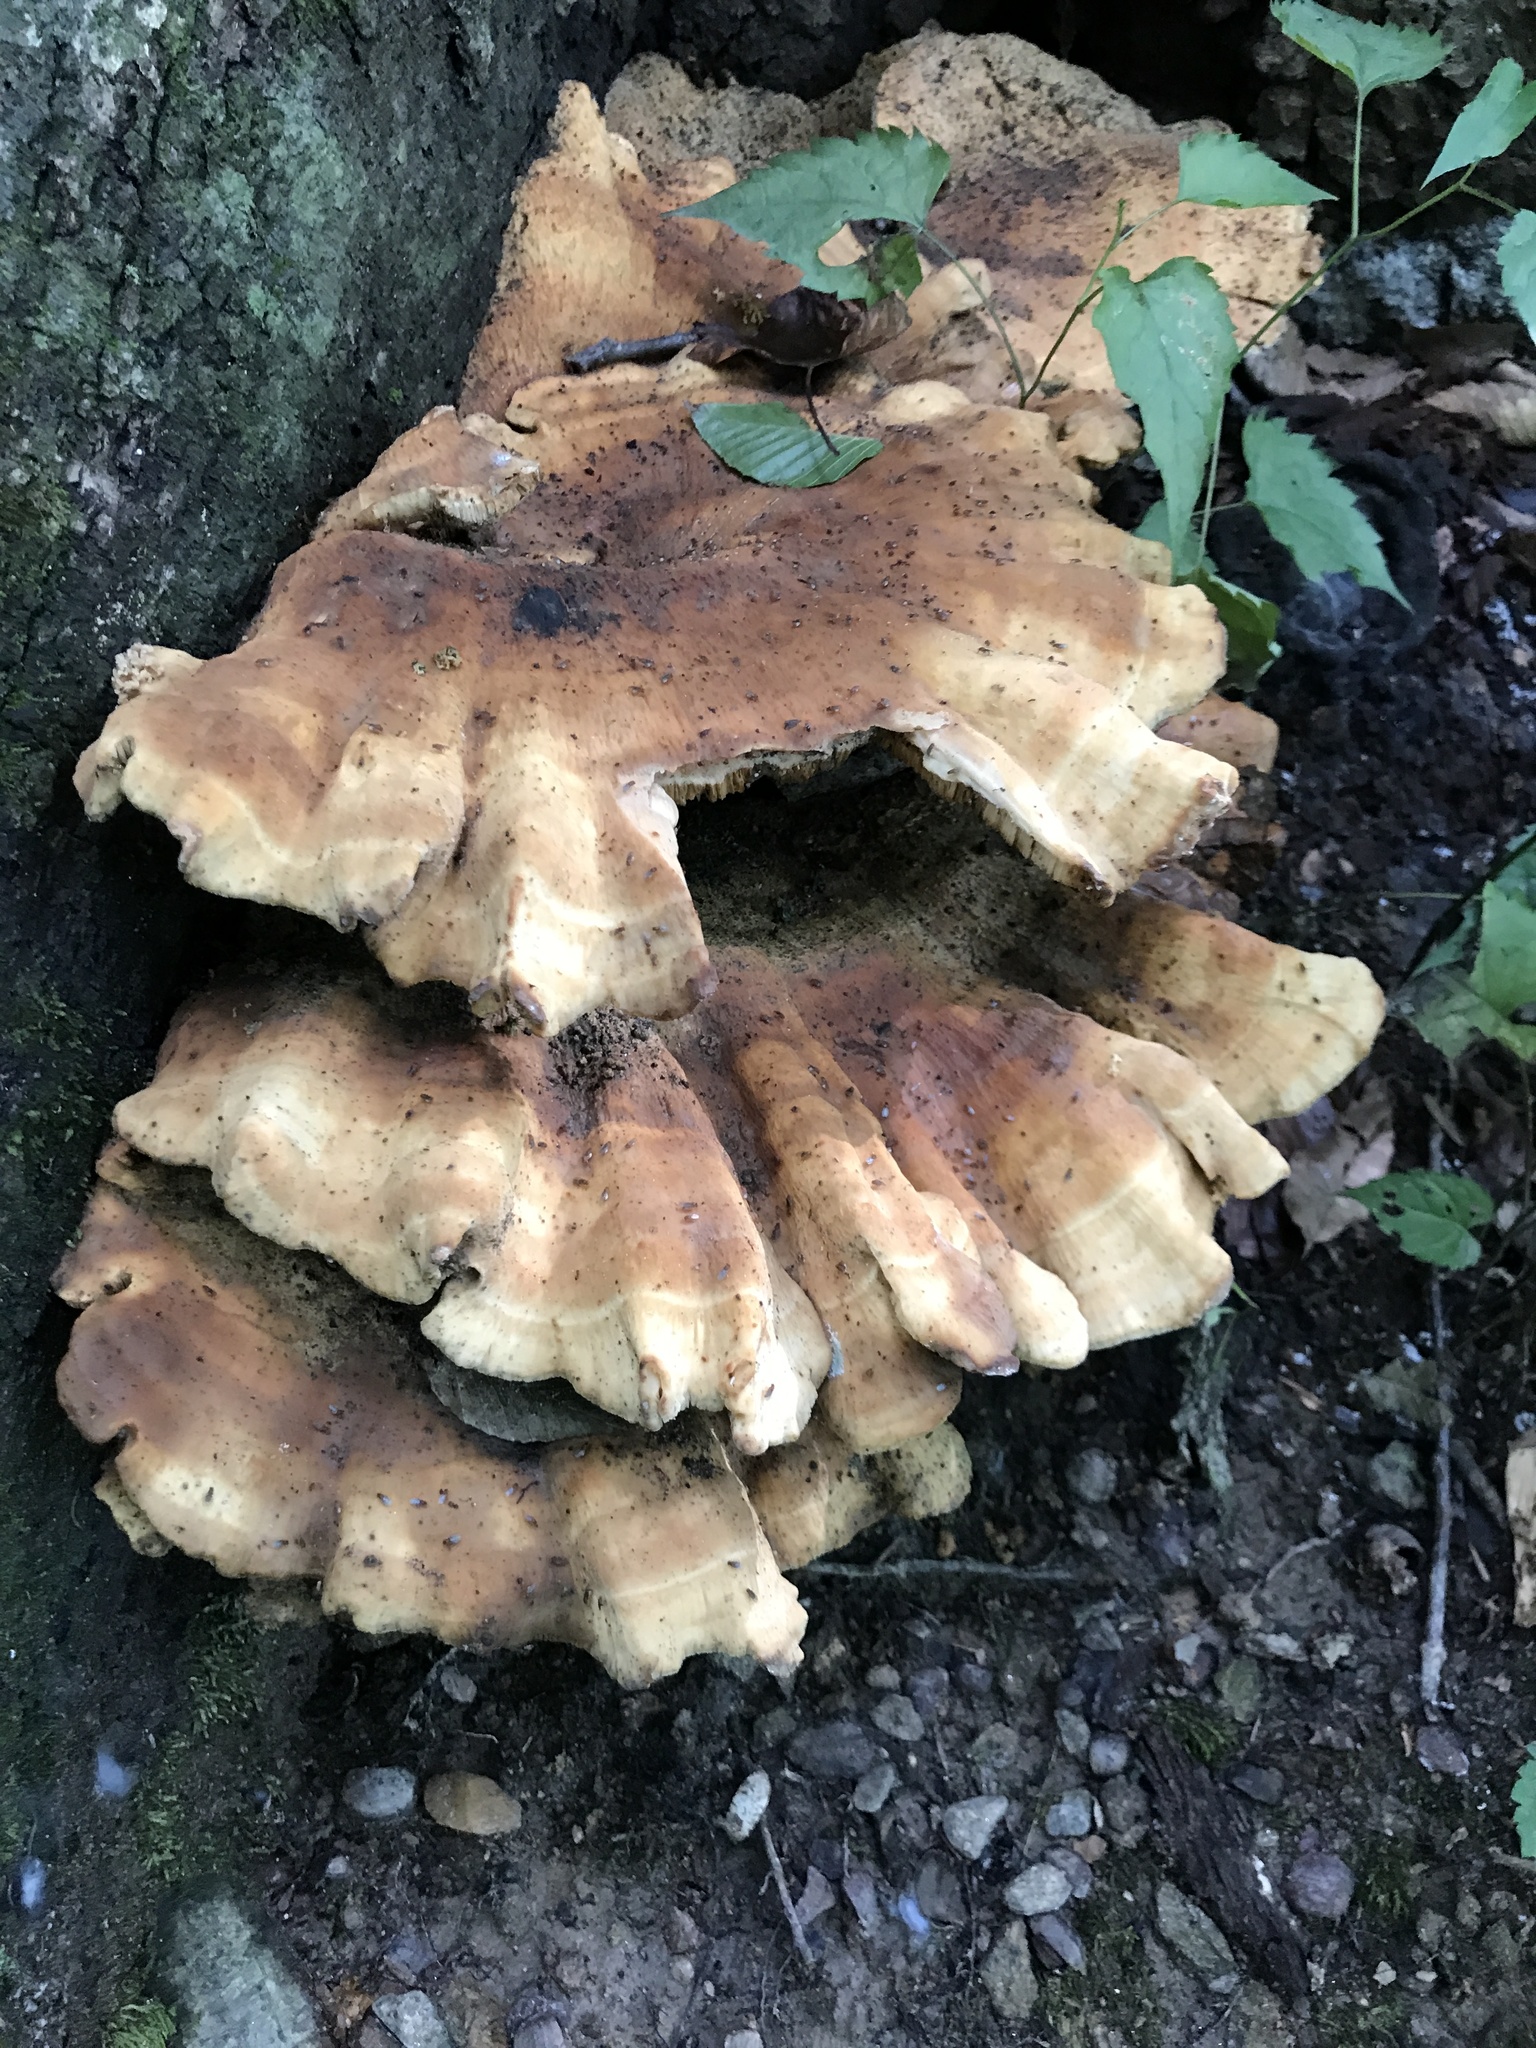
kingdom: Fungi
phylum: Basidiomycota
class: Agaricomycetes
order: Russulales
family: Bondarzewiaceae
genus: Bondarzewia
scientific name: Bondarzewia berkeleyi
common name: Berkeley's polypore
